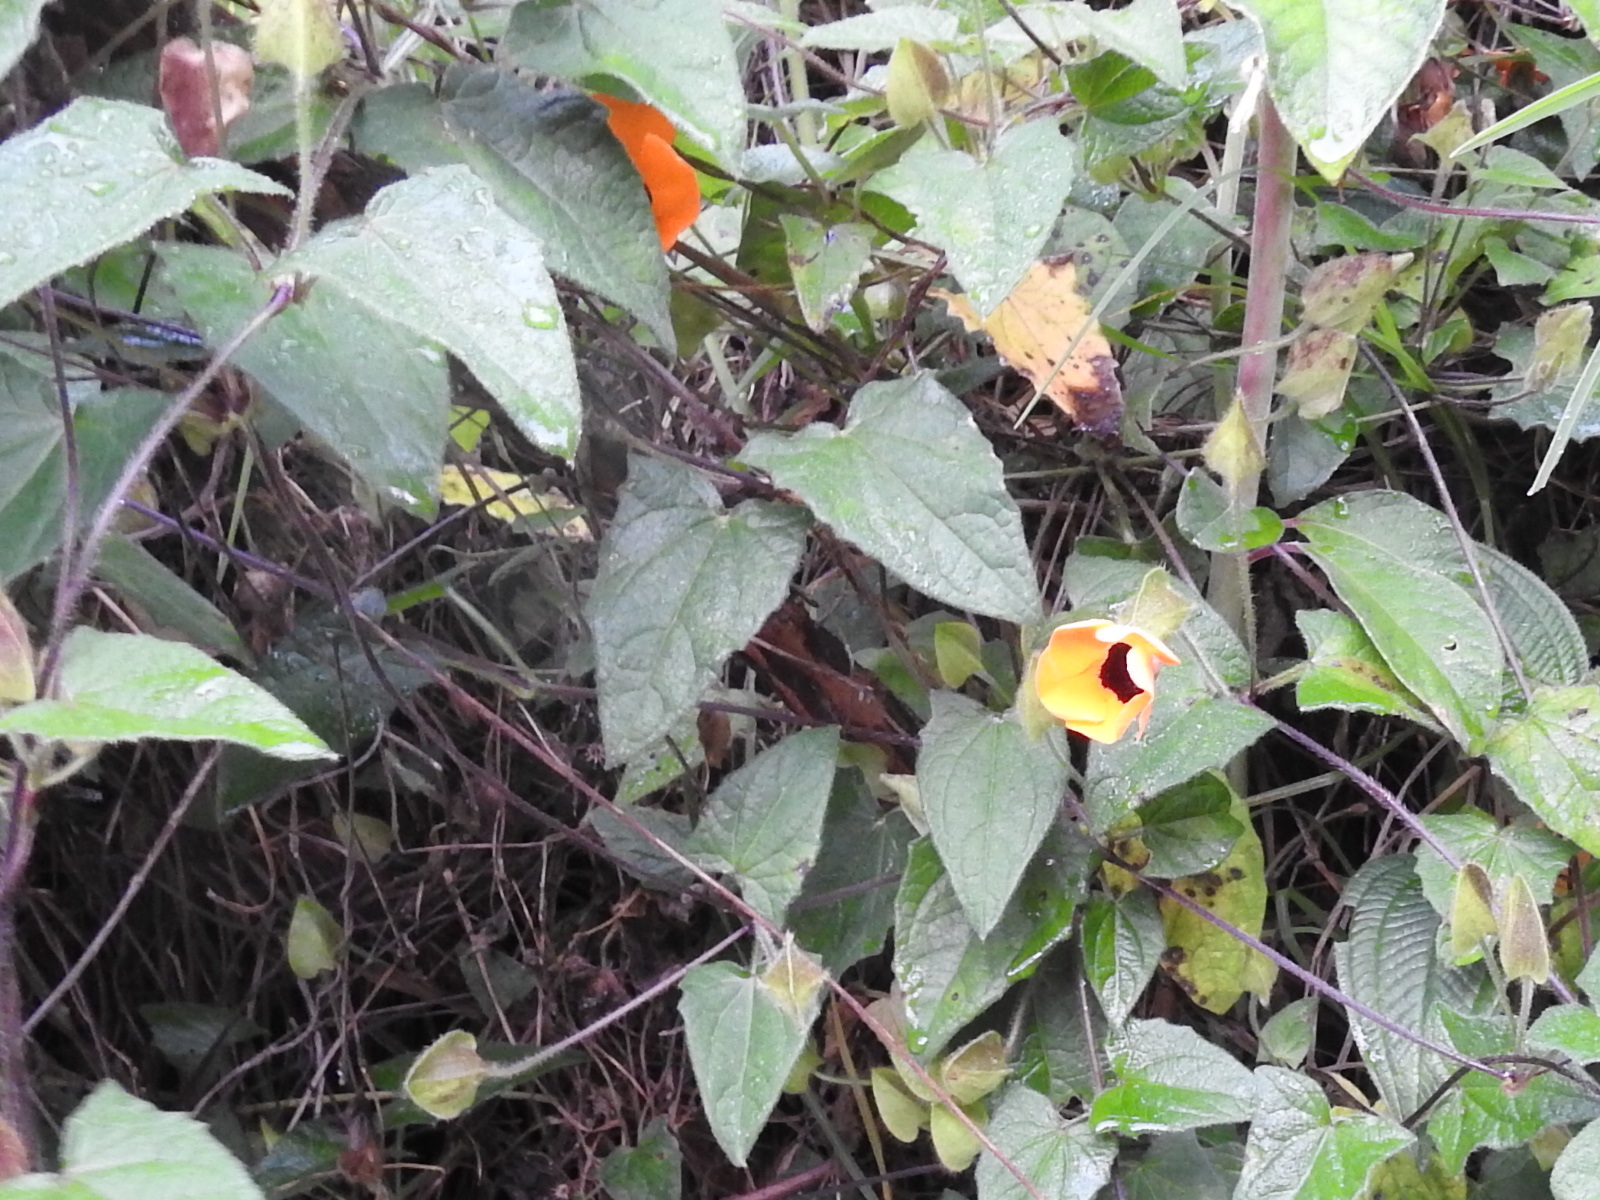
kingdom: Plantae
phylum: Tracheophyta
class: Magnoliopsida
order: Lamiales
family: Acanthaceae
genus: Thunbergia
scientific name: Thunbergia alata
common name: Blackeyed susan vine
